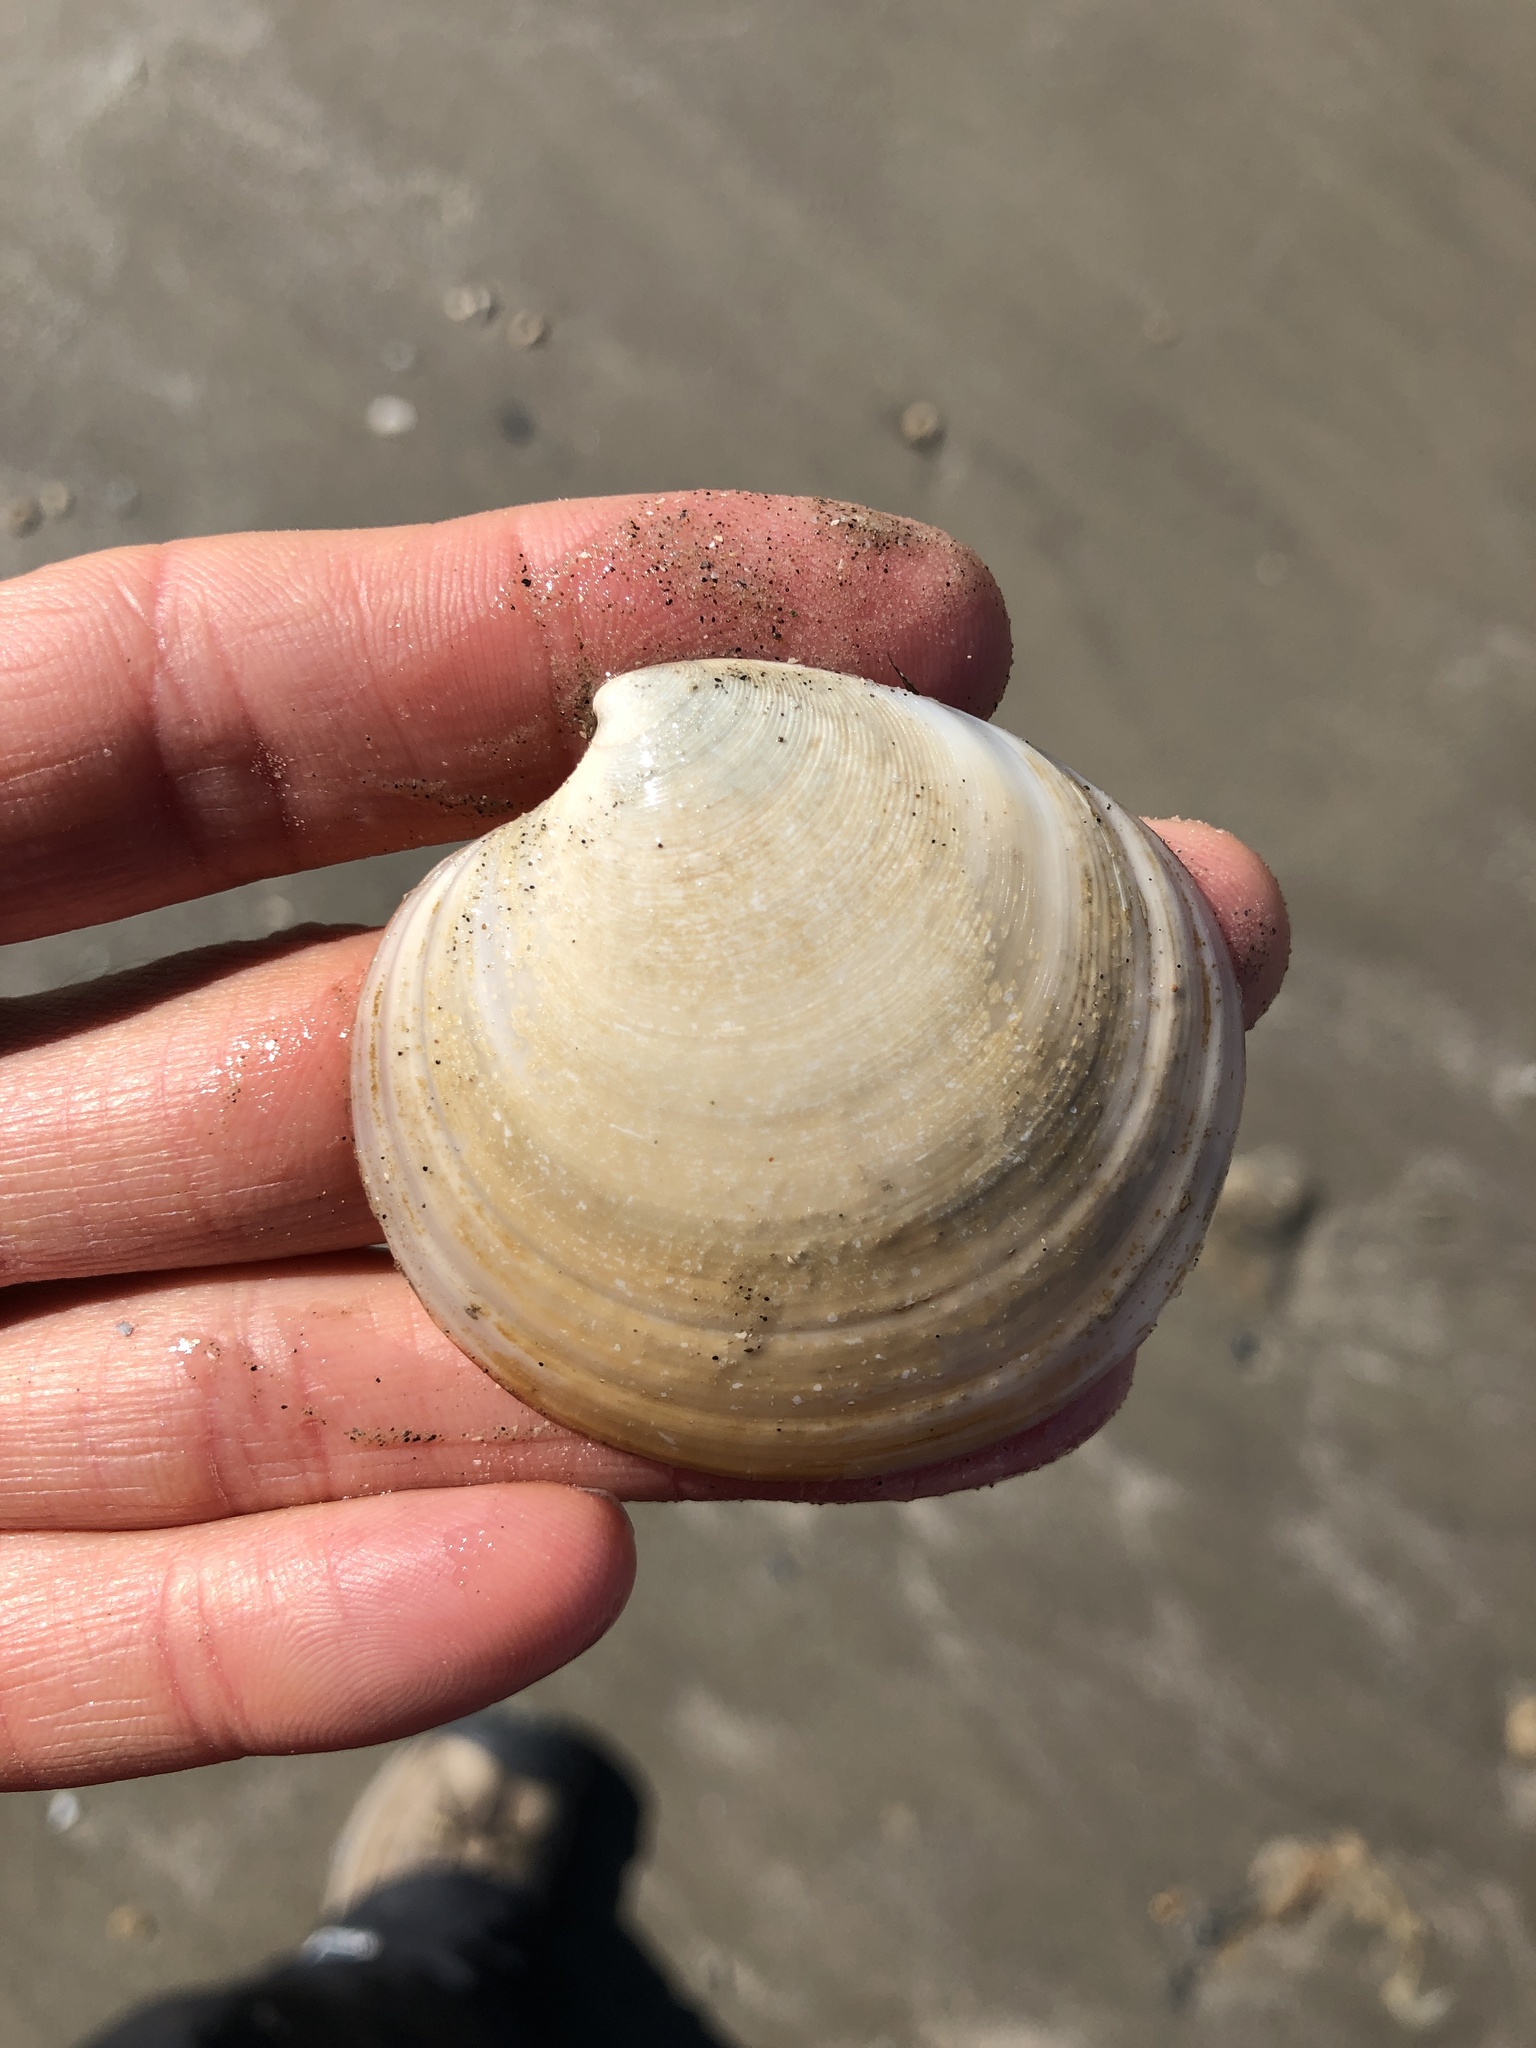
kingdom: Animalia
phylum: Mollusca
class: Bivalvia
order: Venerida
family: Veneridae
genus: Dosinia
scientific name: Dosinia discus
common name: Disk dosinia
